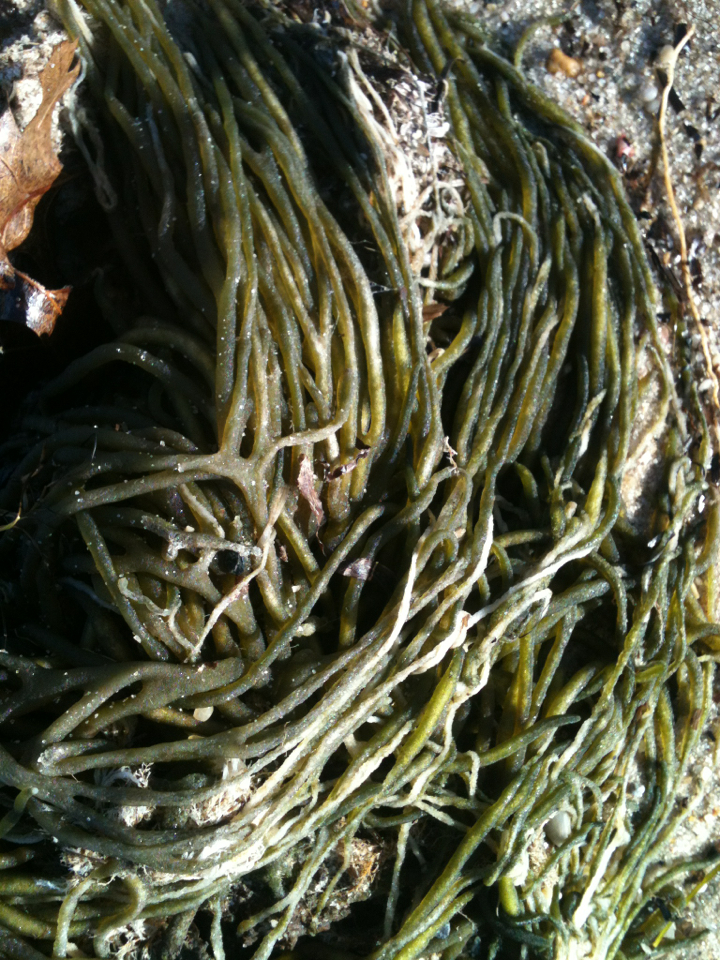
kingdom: Plantae
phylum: Chlorophyta
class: Ulvophyceae
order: Bryopsidales
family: Codiaceae
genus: Codium
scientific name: Codium fragile
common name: Dead man's fingers
